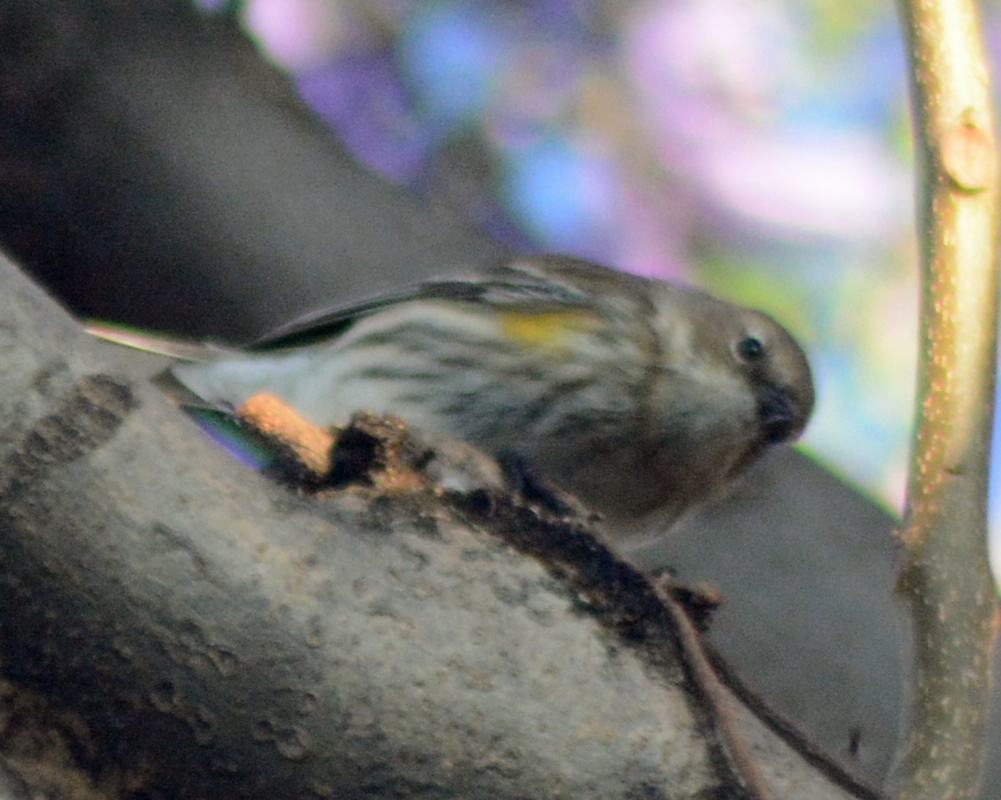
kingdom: Animalia
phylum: Chordata
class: Aves
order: Passeriformes
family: Parulidae
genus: Setophaga
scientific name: Setophaga coronata
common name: Myrtle warbler
